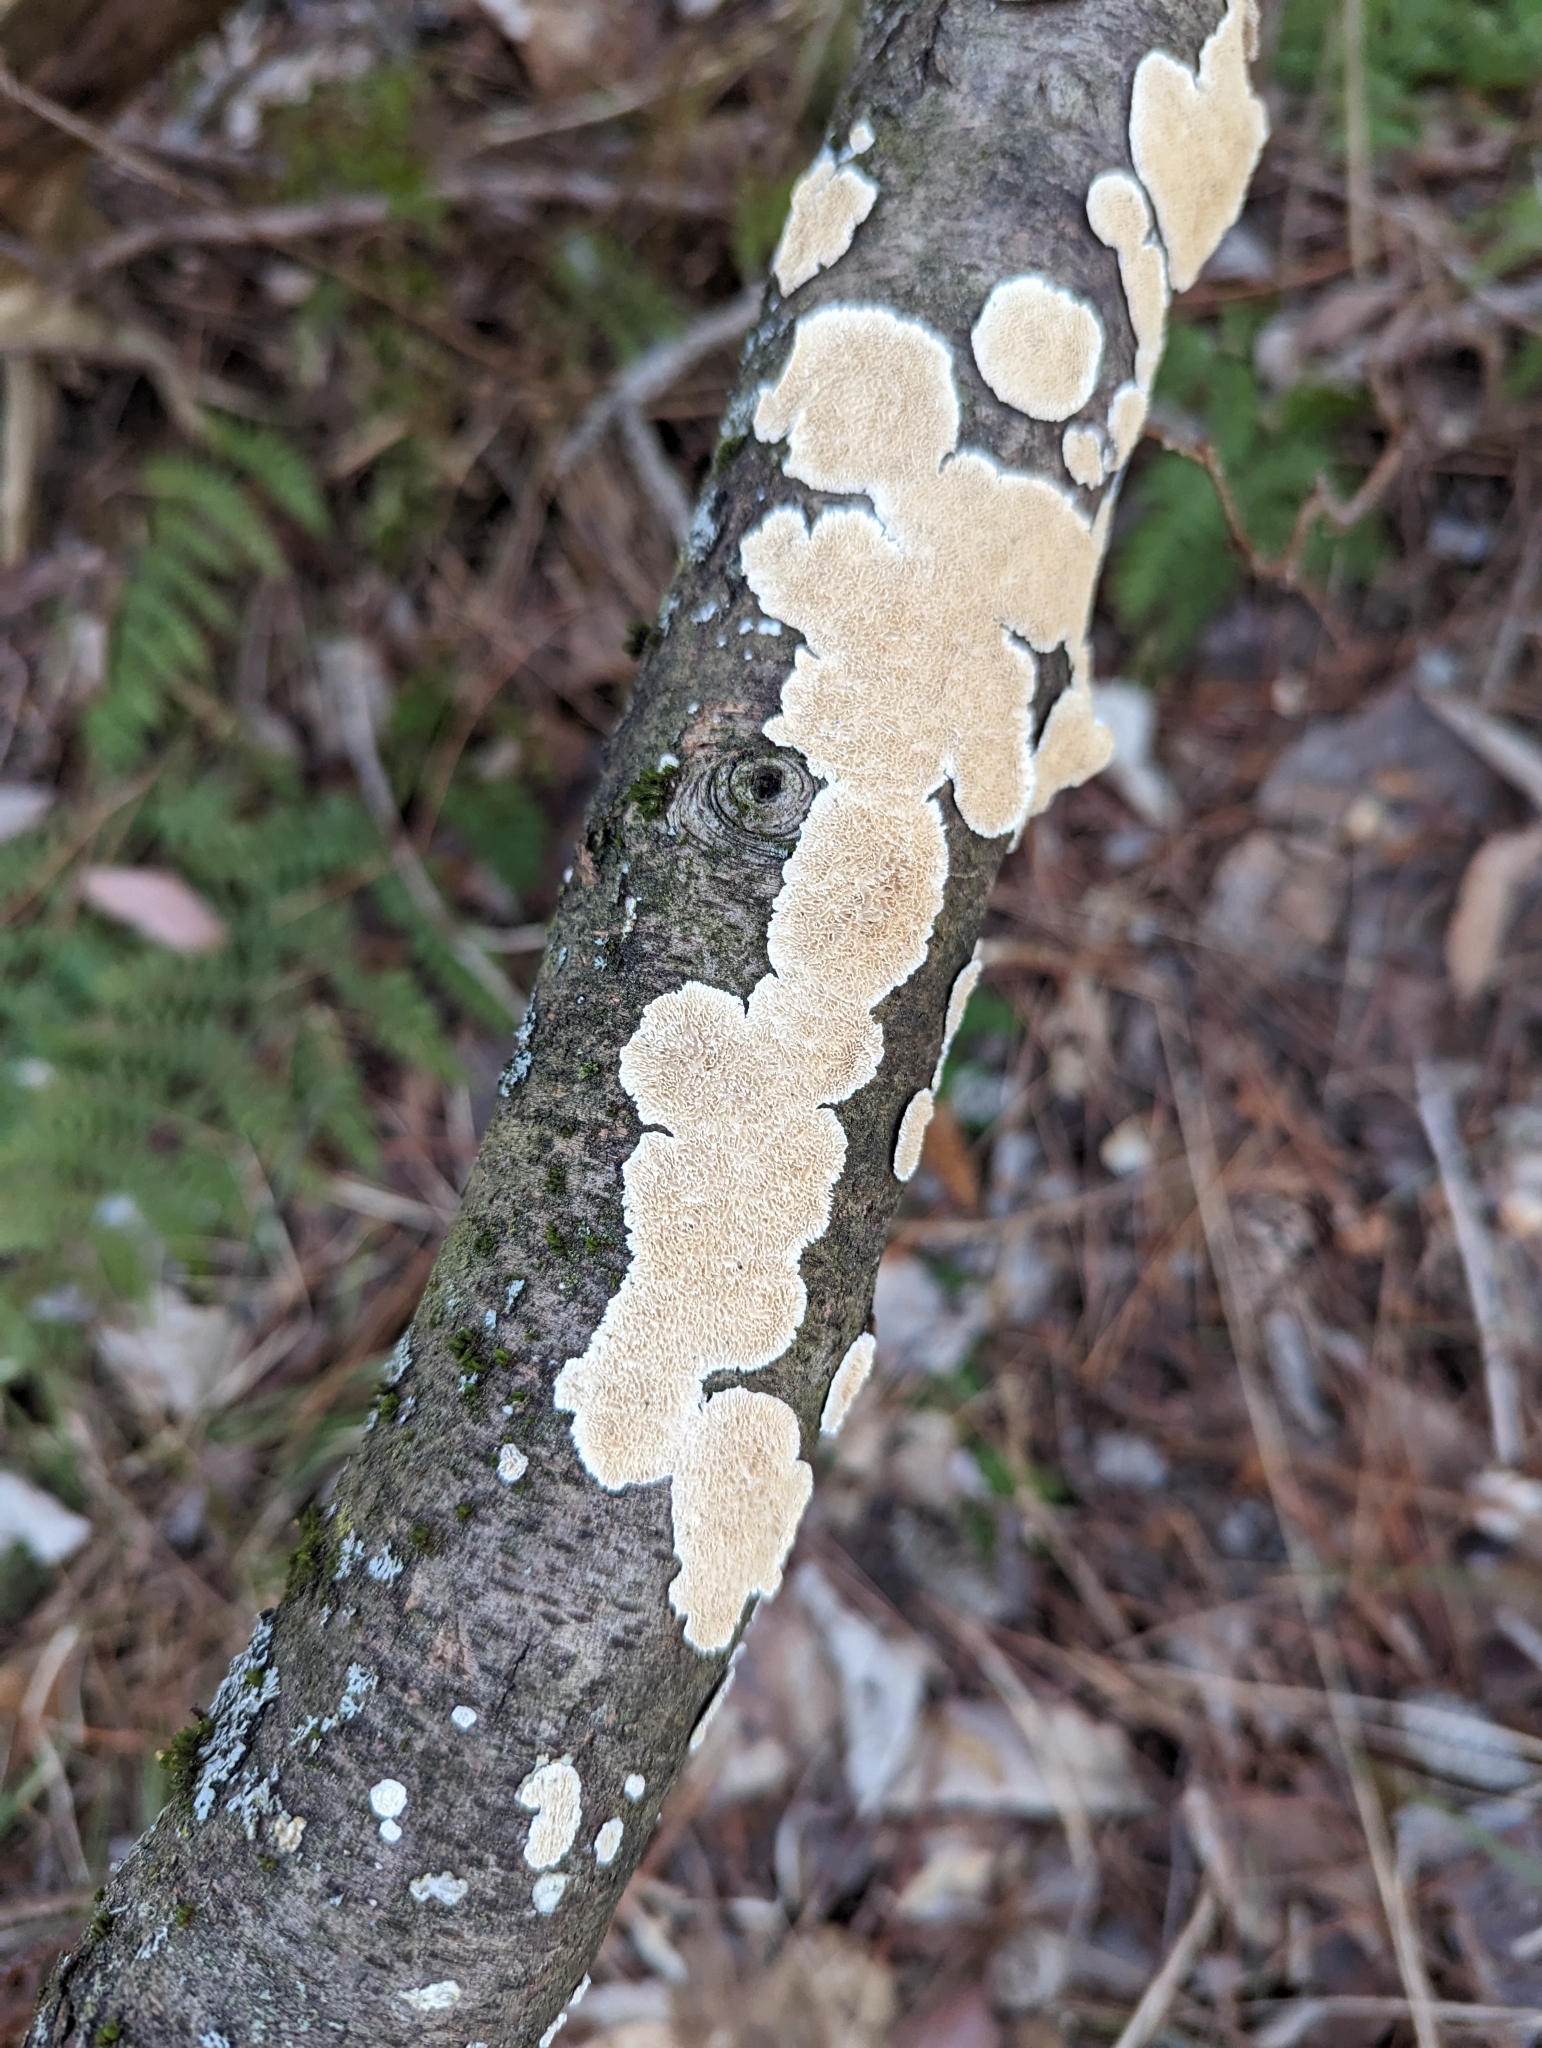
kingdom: Fungi
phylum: Basidiomycota
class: Agaricomycetes
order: Polyporales
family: Irpicaceae
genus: Irpex
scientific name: Irpex lacteus
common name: Milk-white toothed polypore
